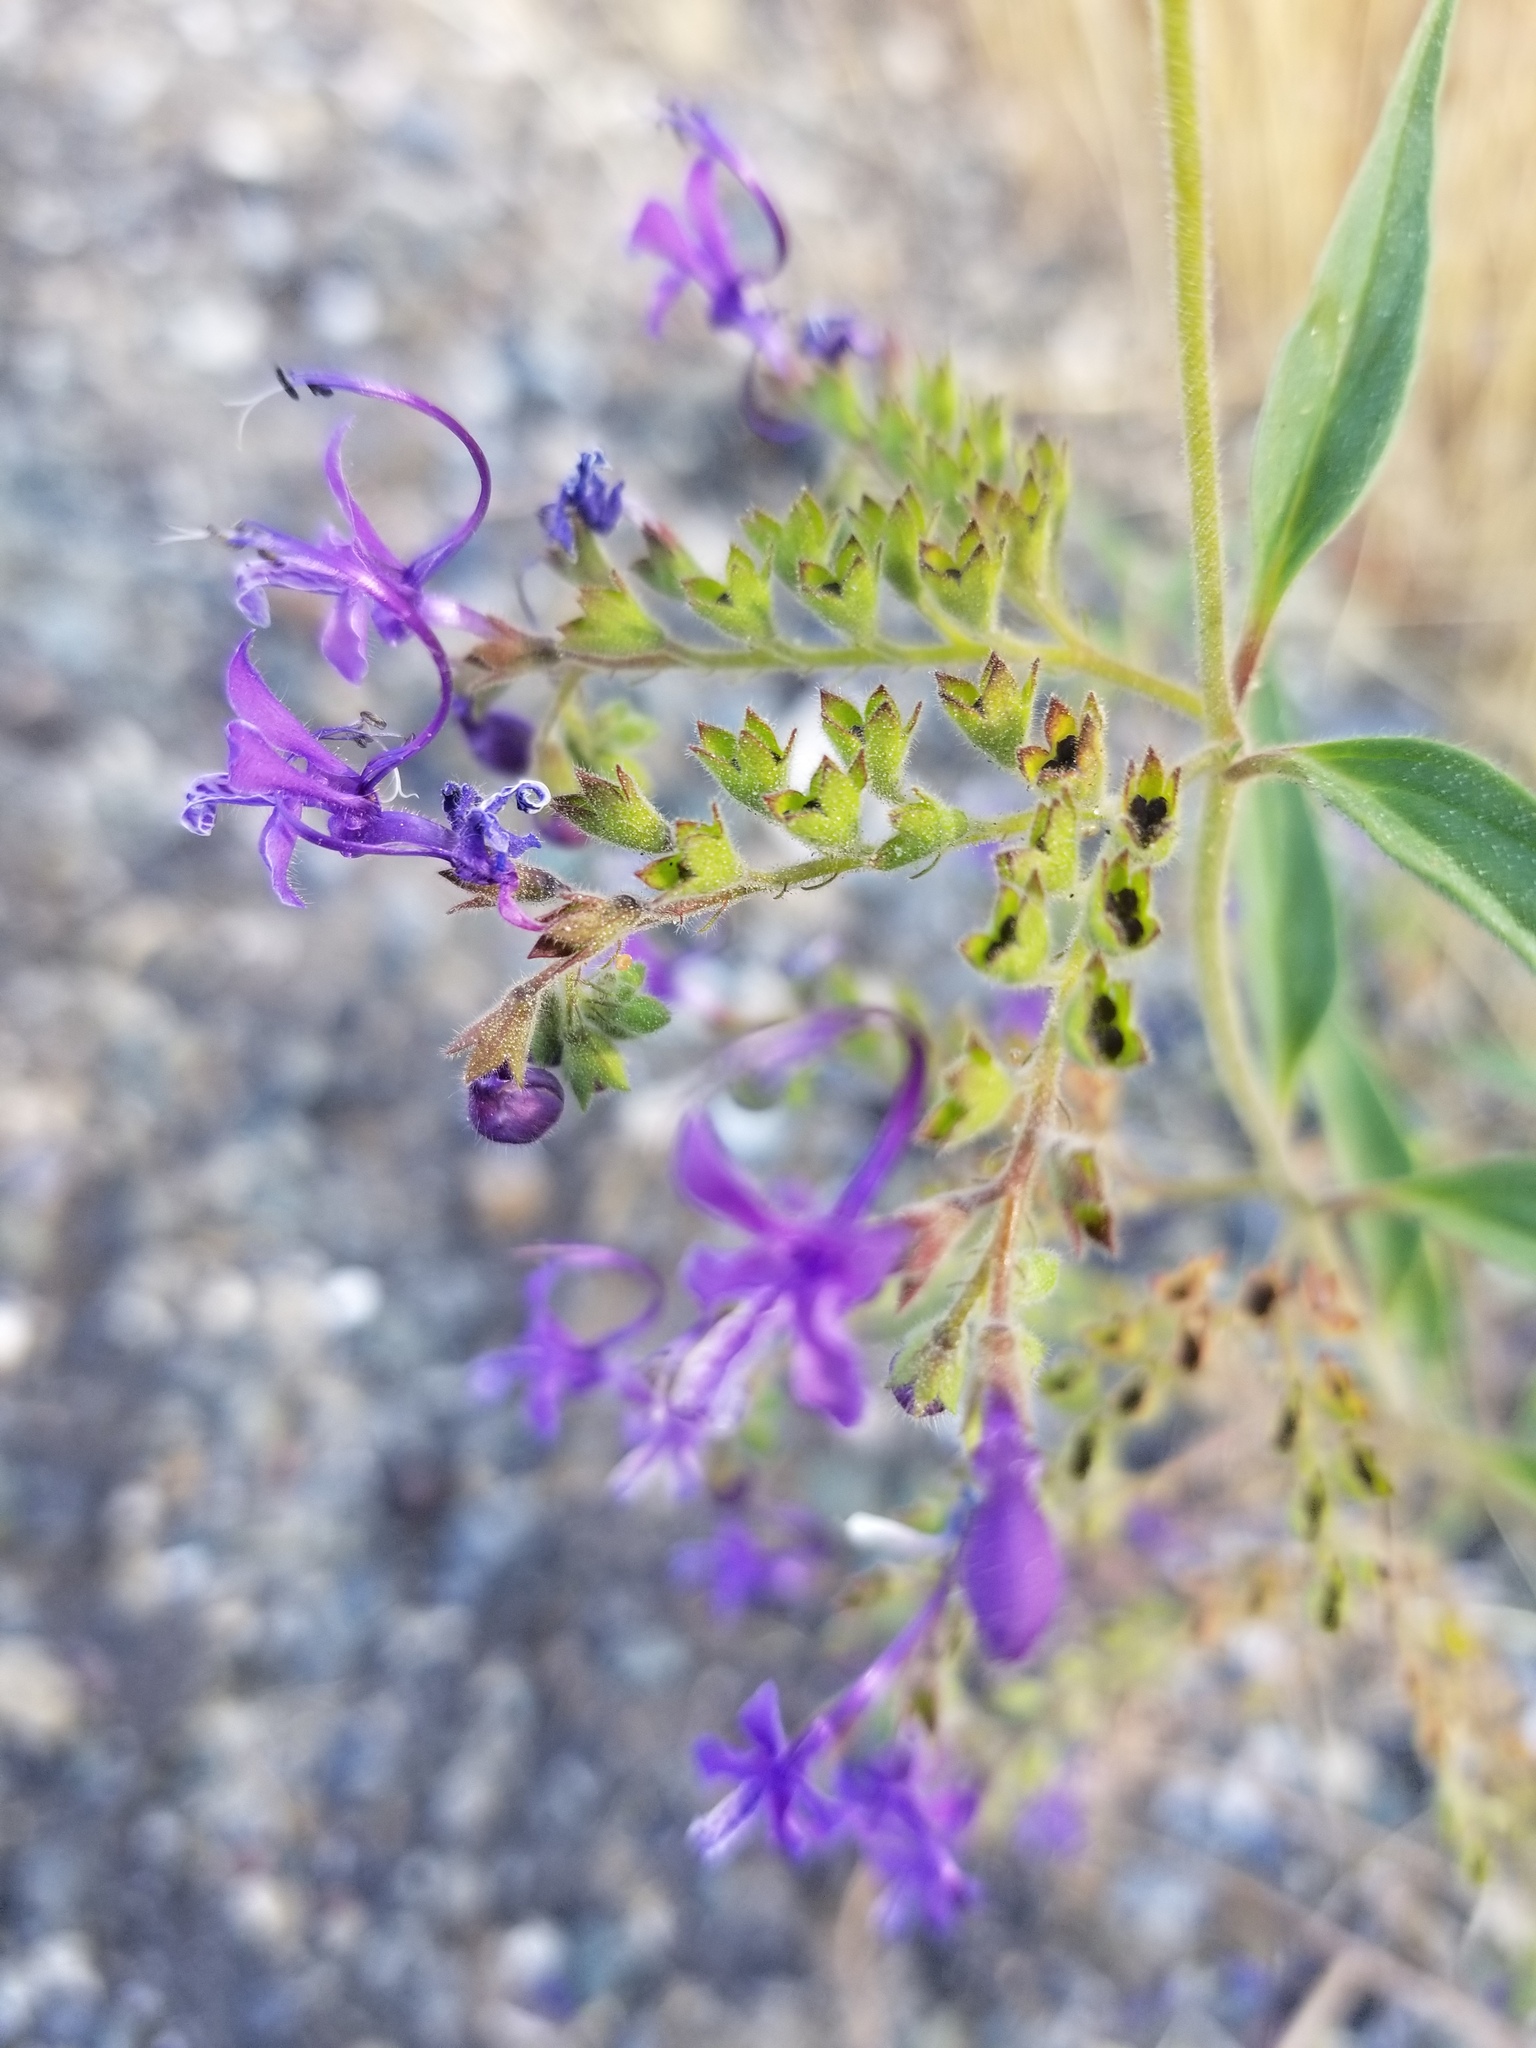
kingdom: Plantae
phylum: Tracheophyta
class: Magnoliopsida
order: Lamiales
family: Lamiaceae
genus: Trichostema
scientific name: Trichostema laxum
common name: Turpentine weed
